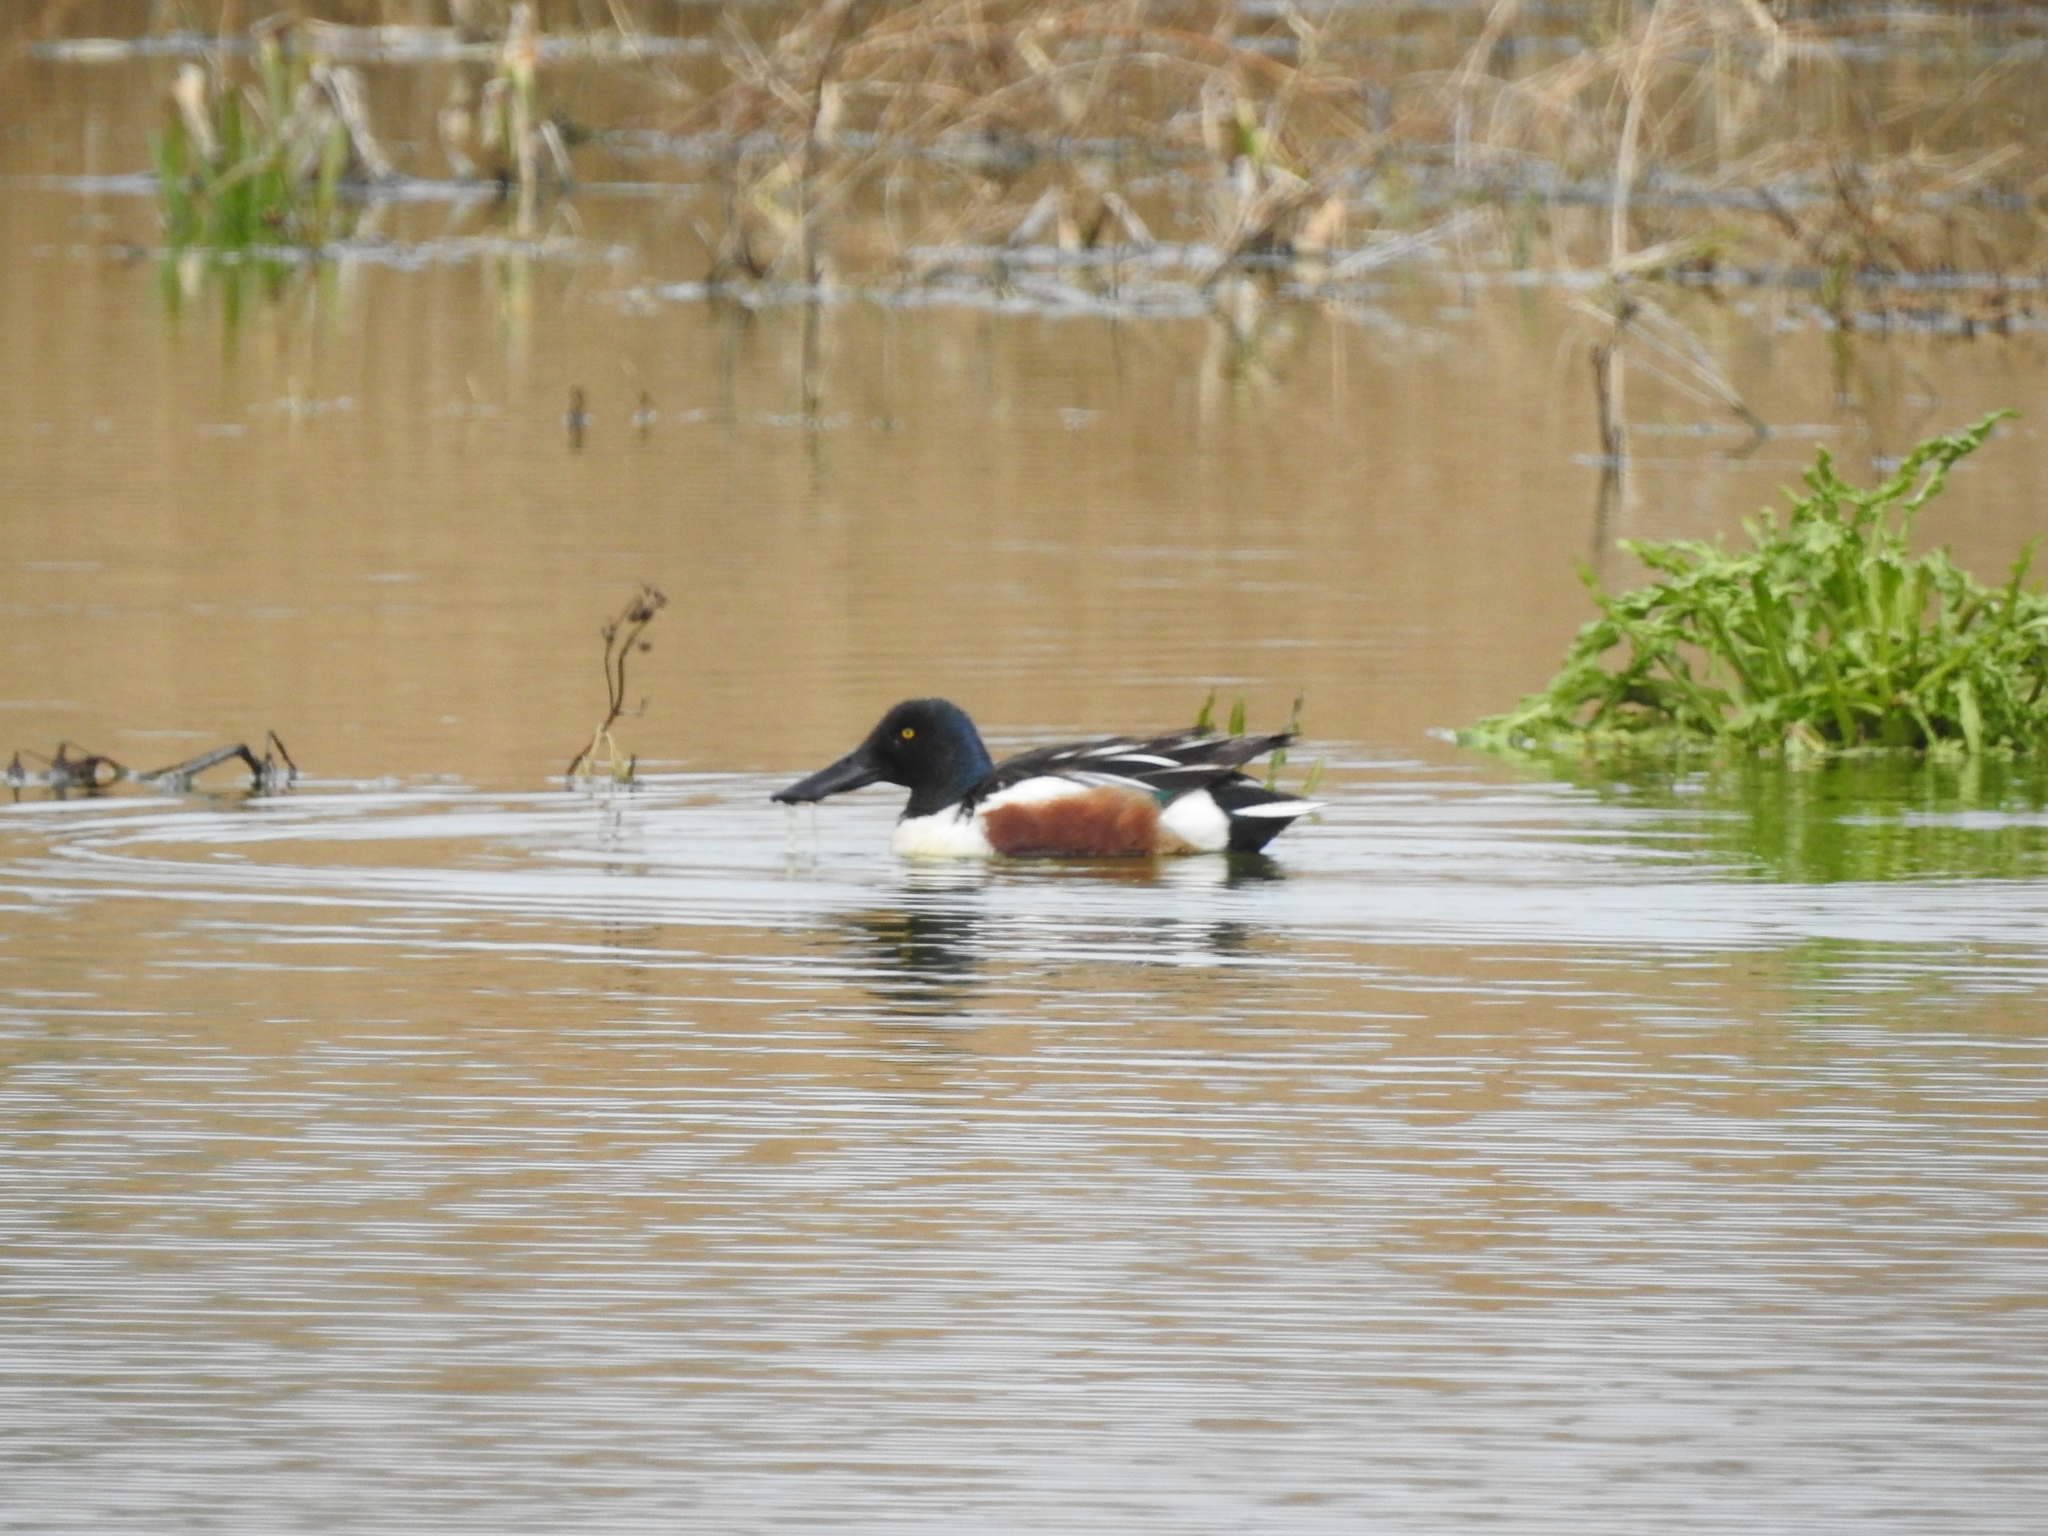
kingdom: Animalia
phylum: Chordata
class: Aves
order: Anseriformes
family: Anatidae
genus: Spatula
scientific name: Spatula clypeata
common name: Northern shoveler
